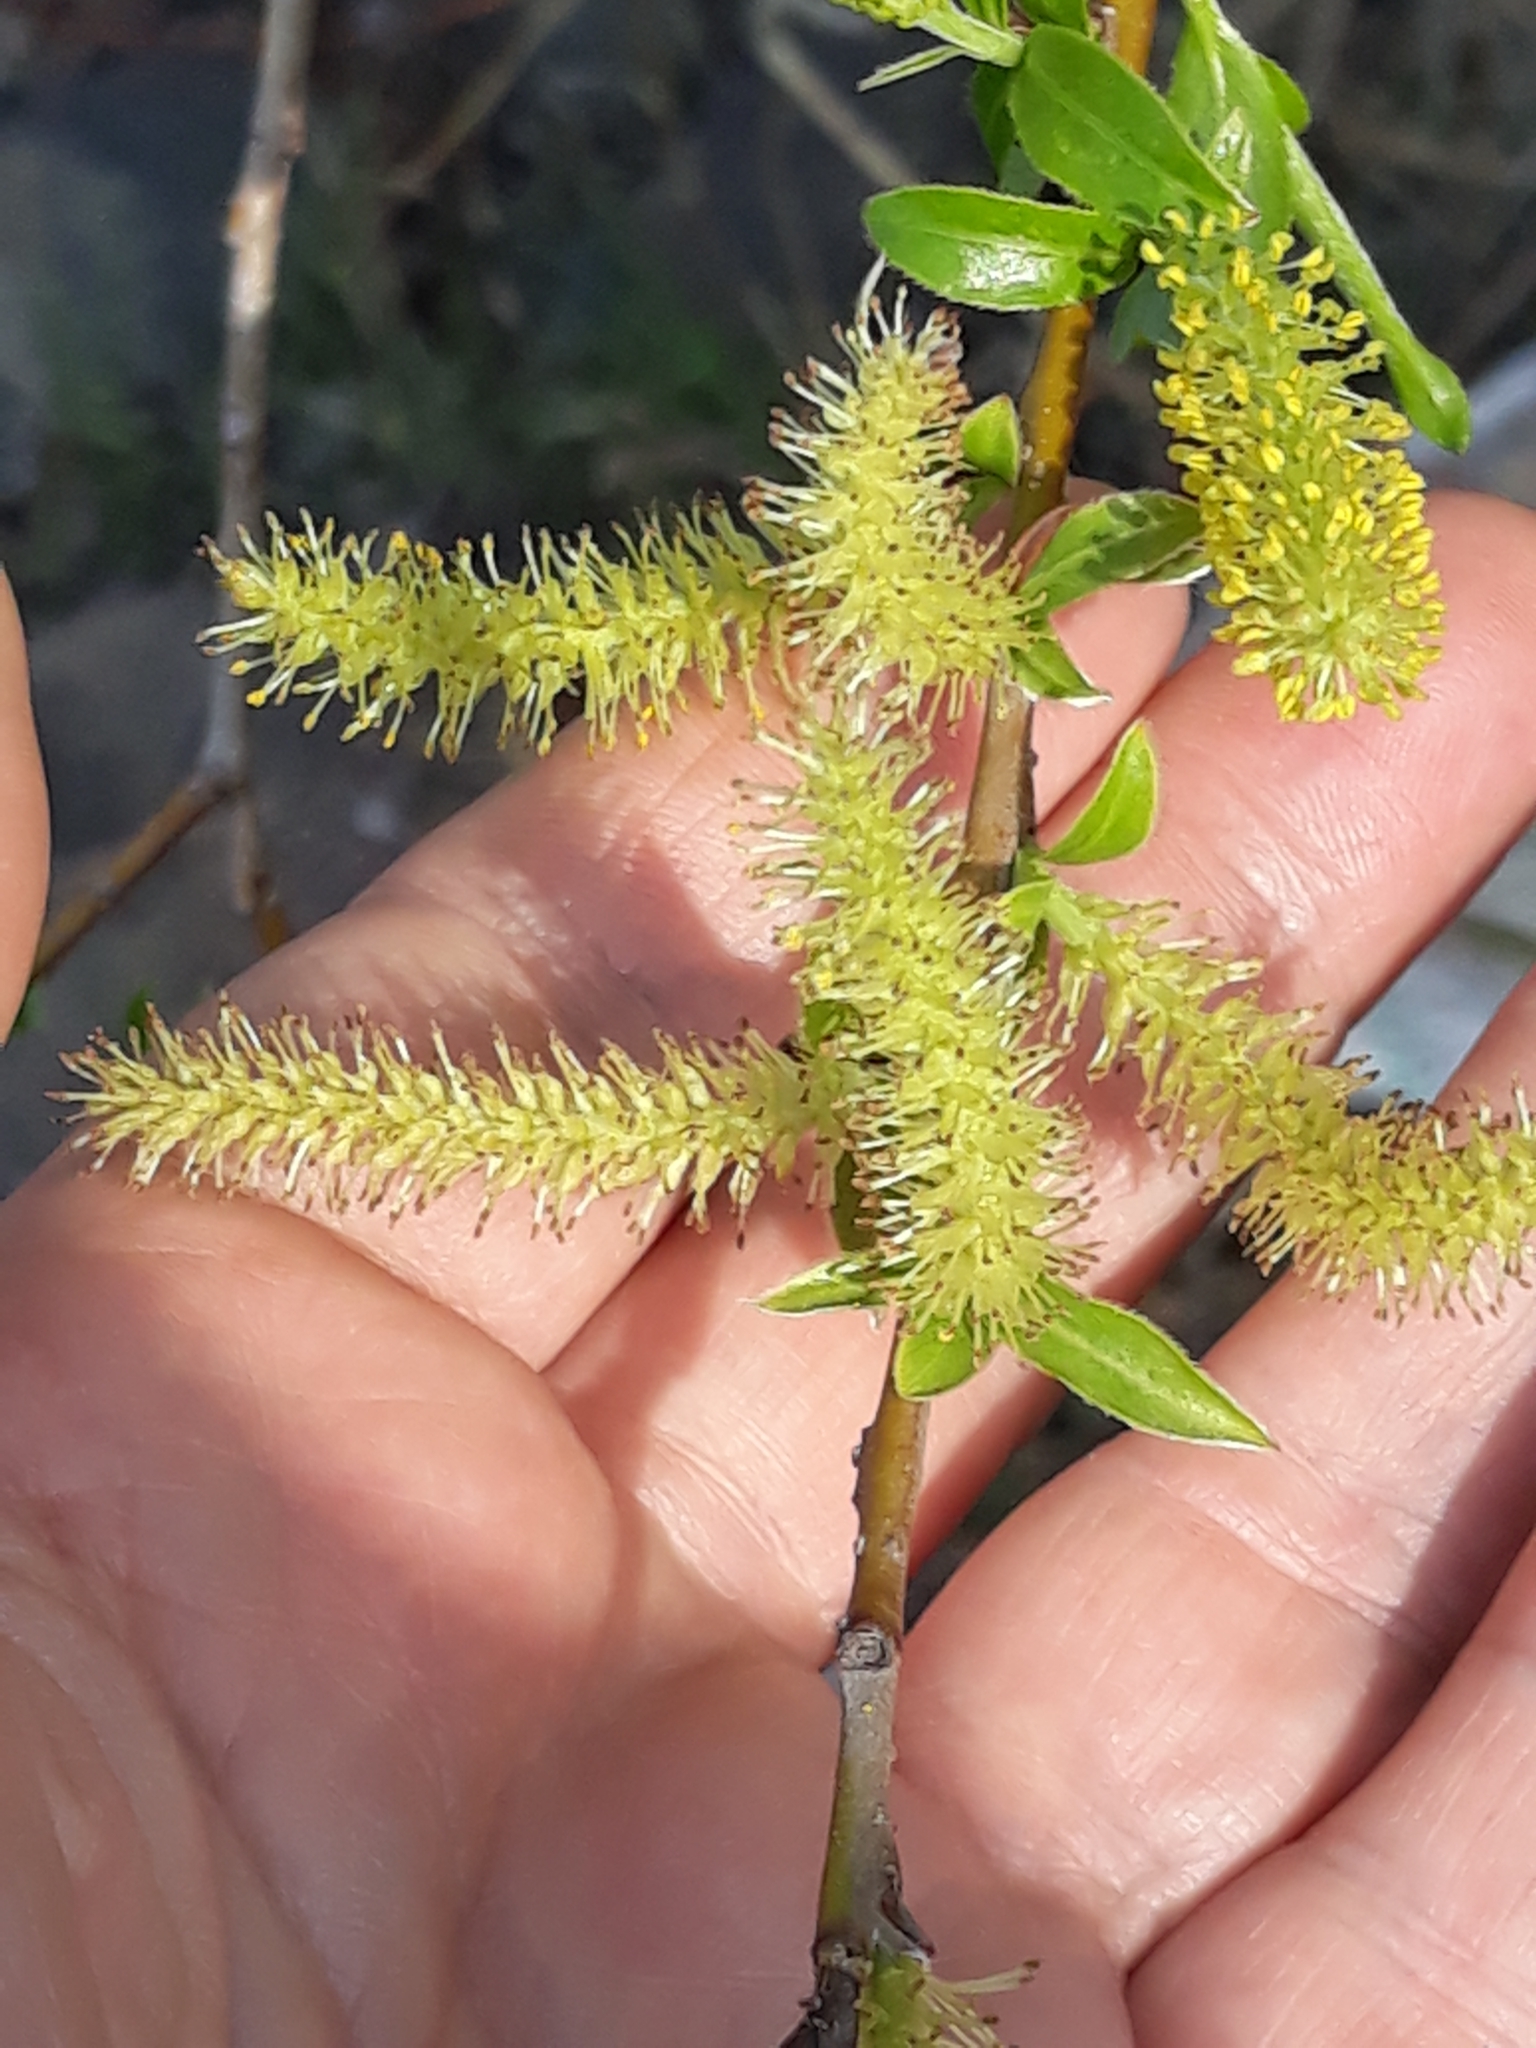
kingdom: Plantae
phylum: Tracheophyta
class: Magnoliopsida
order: Malpighiales
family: Salicaceae
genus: Salix
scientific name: Salix alba
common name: White willow
